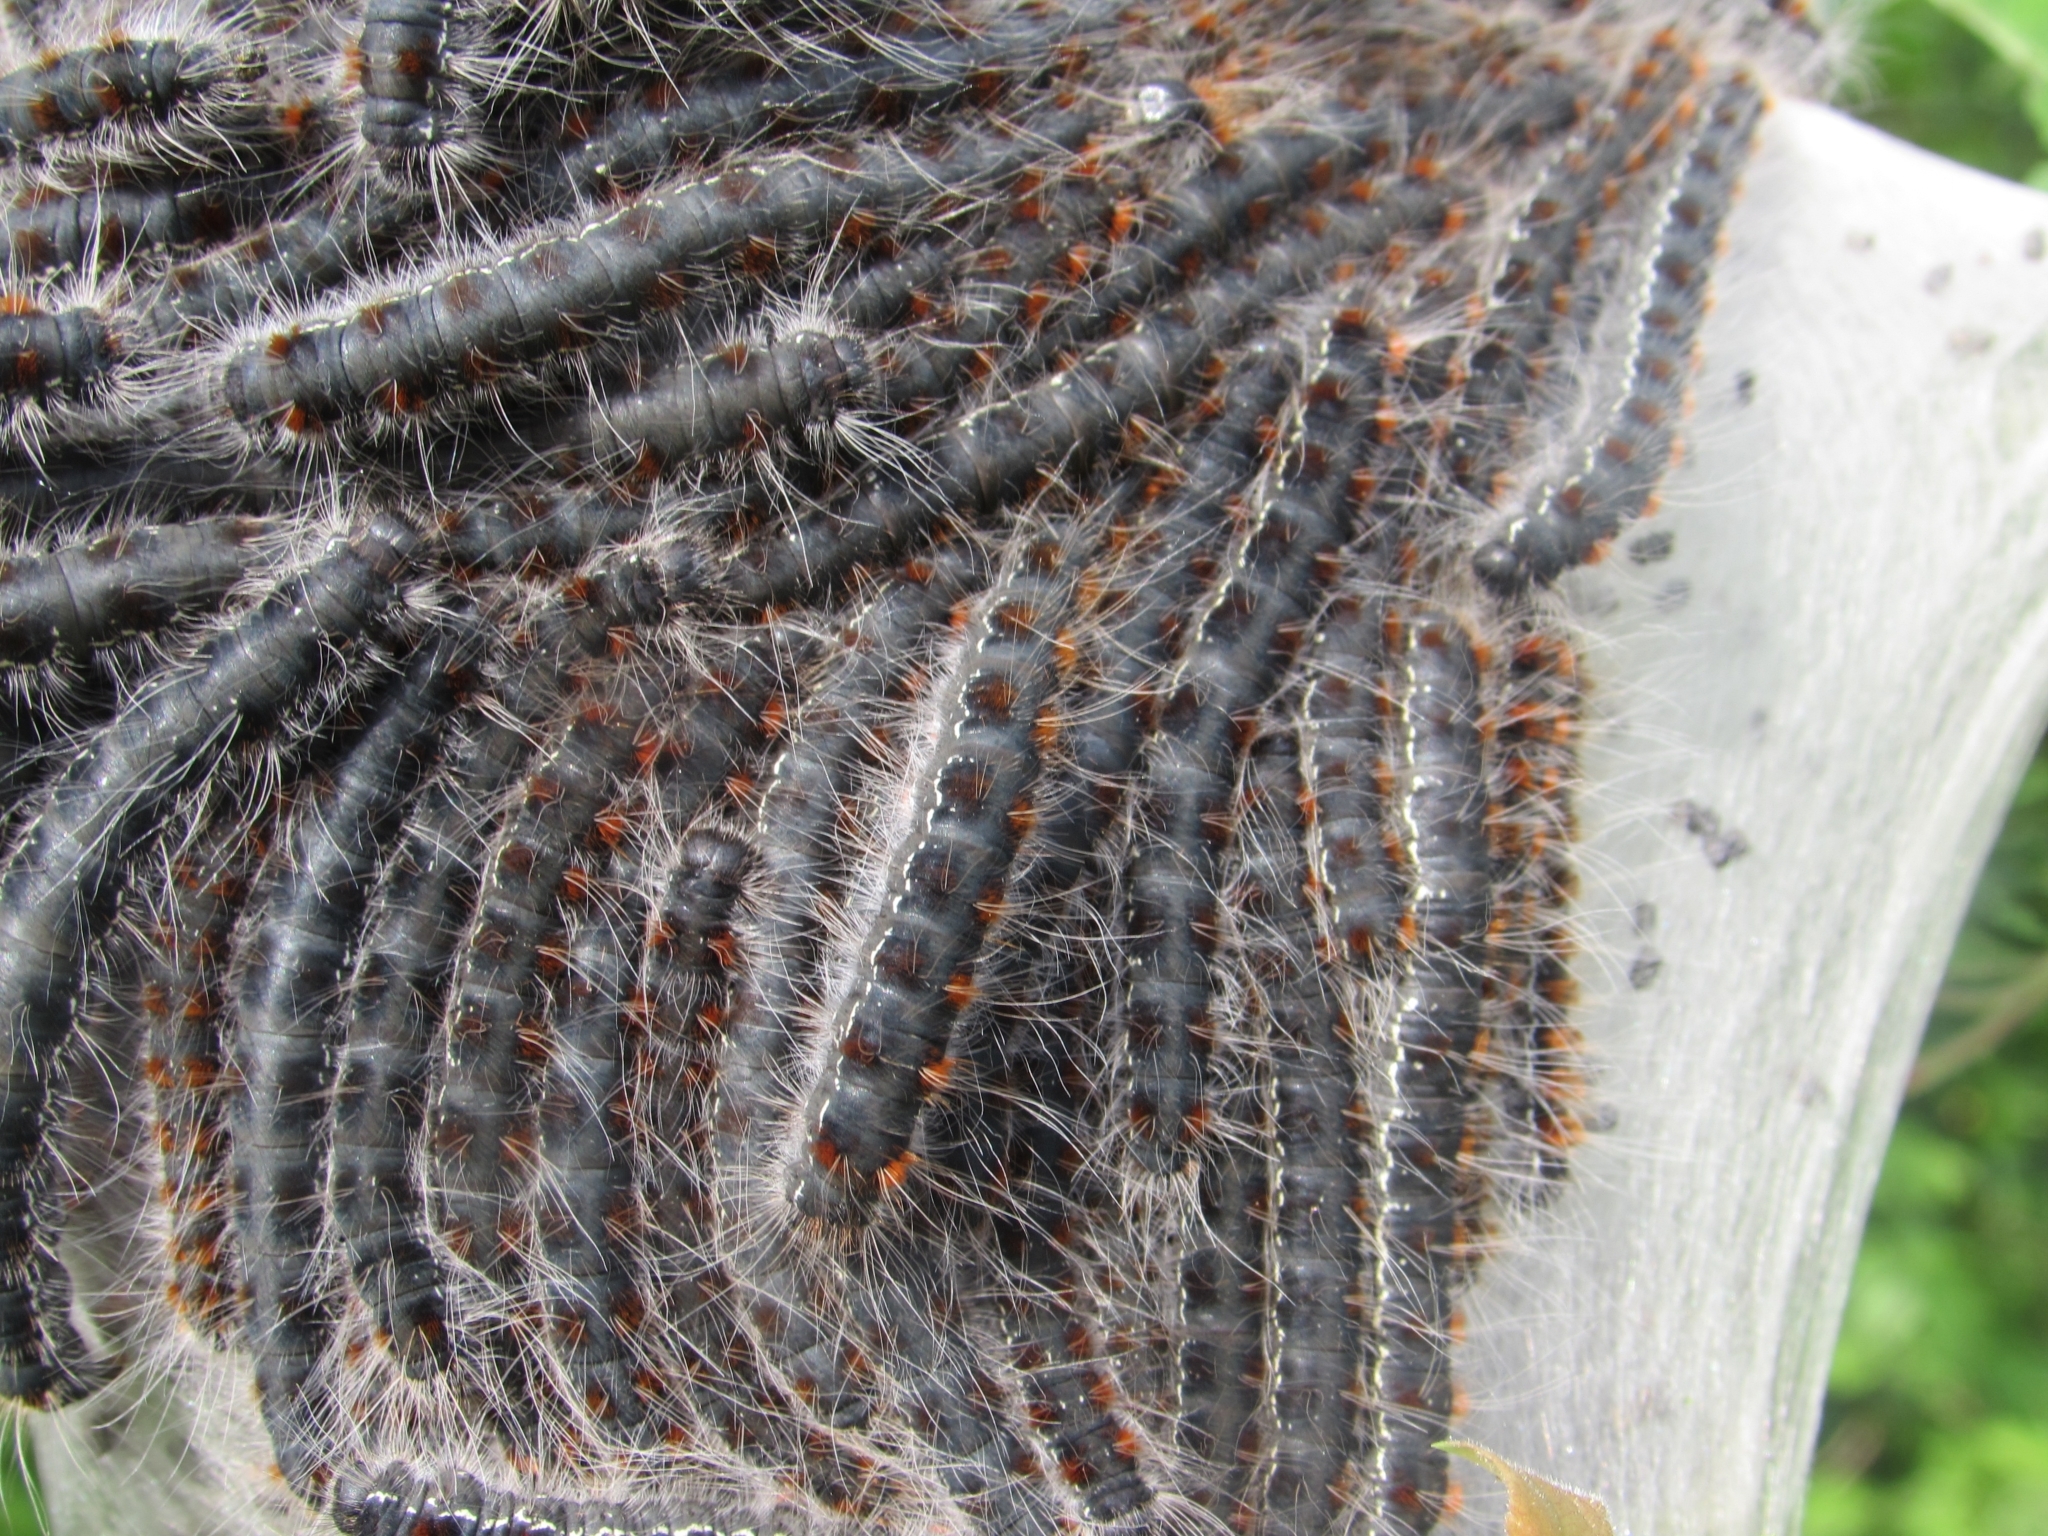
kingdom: Animalia
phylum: Arthropoda
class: Insecta
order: Lepidoptera
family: Lasiocampidae
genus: Eriogaster
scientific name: Eriogaster lanestris
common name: Small eggar
